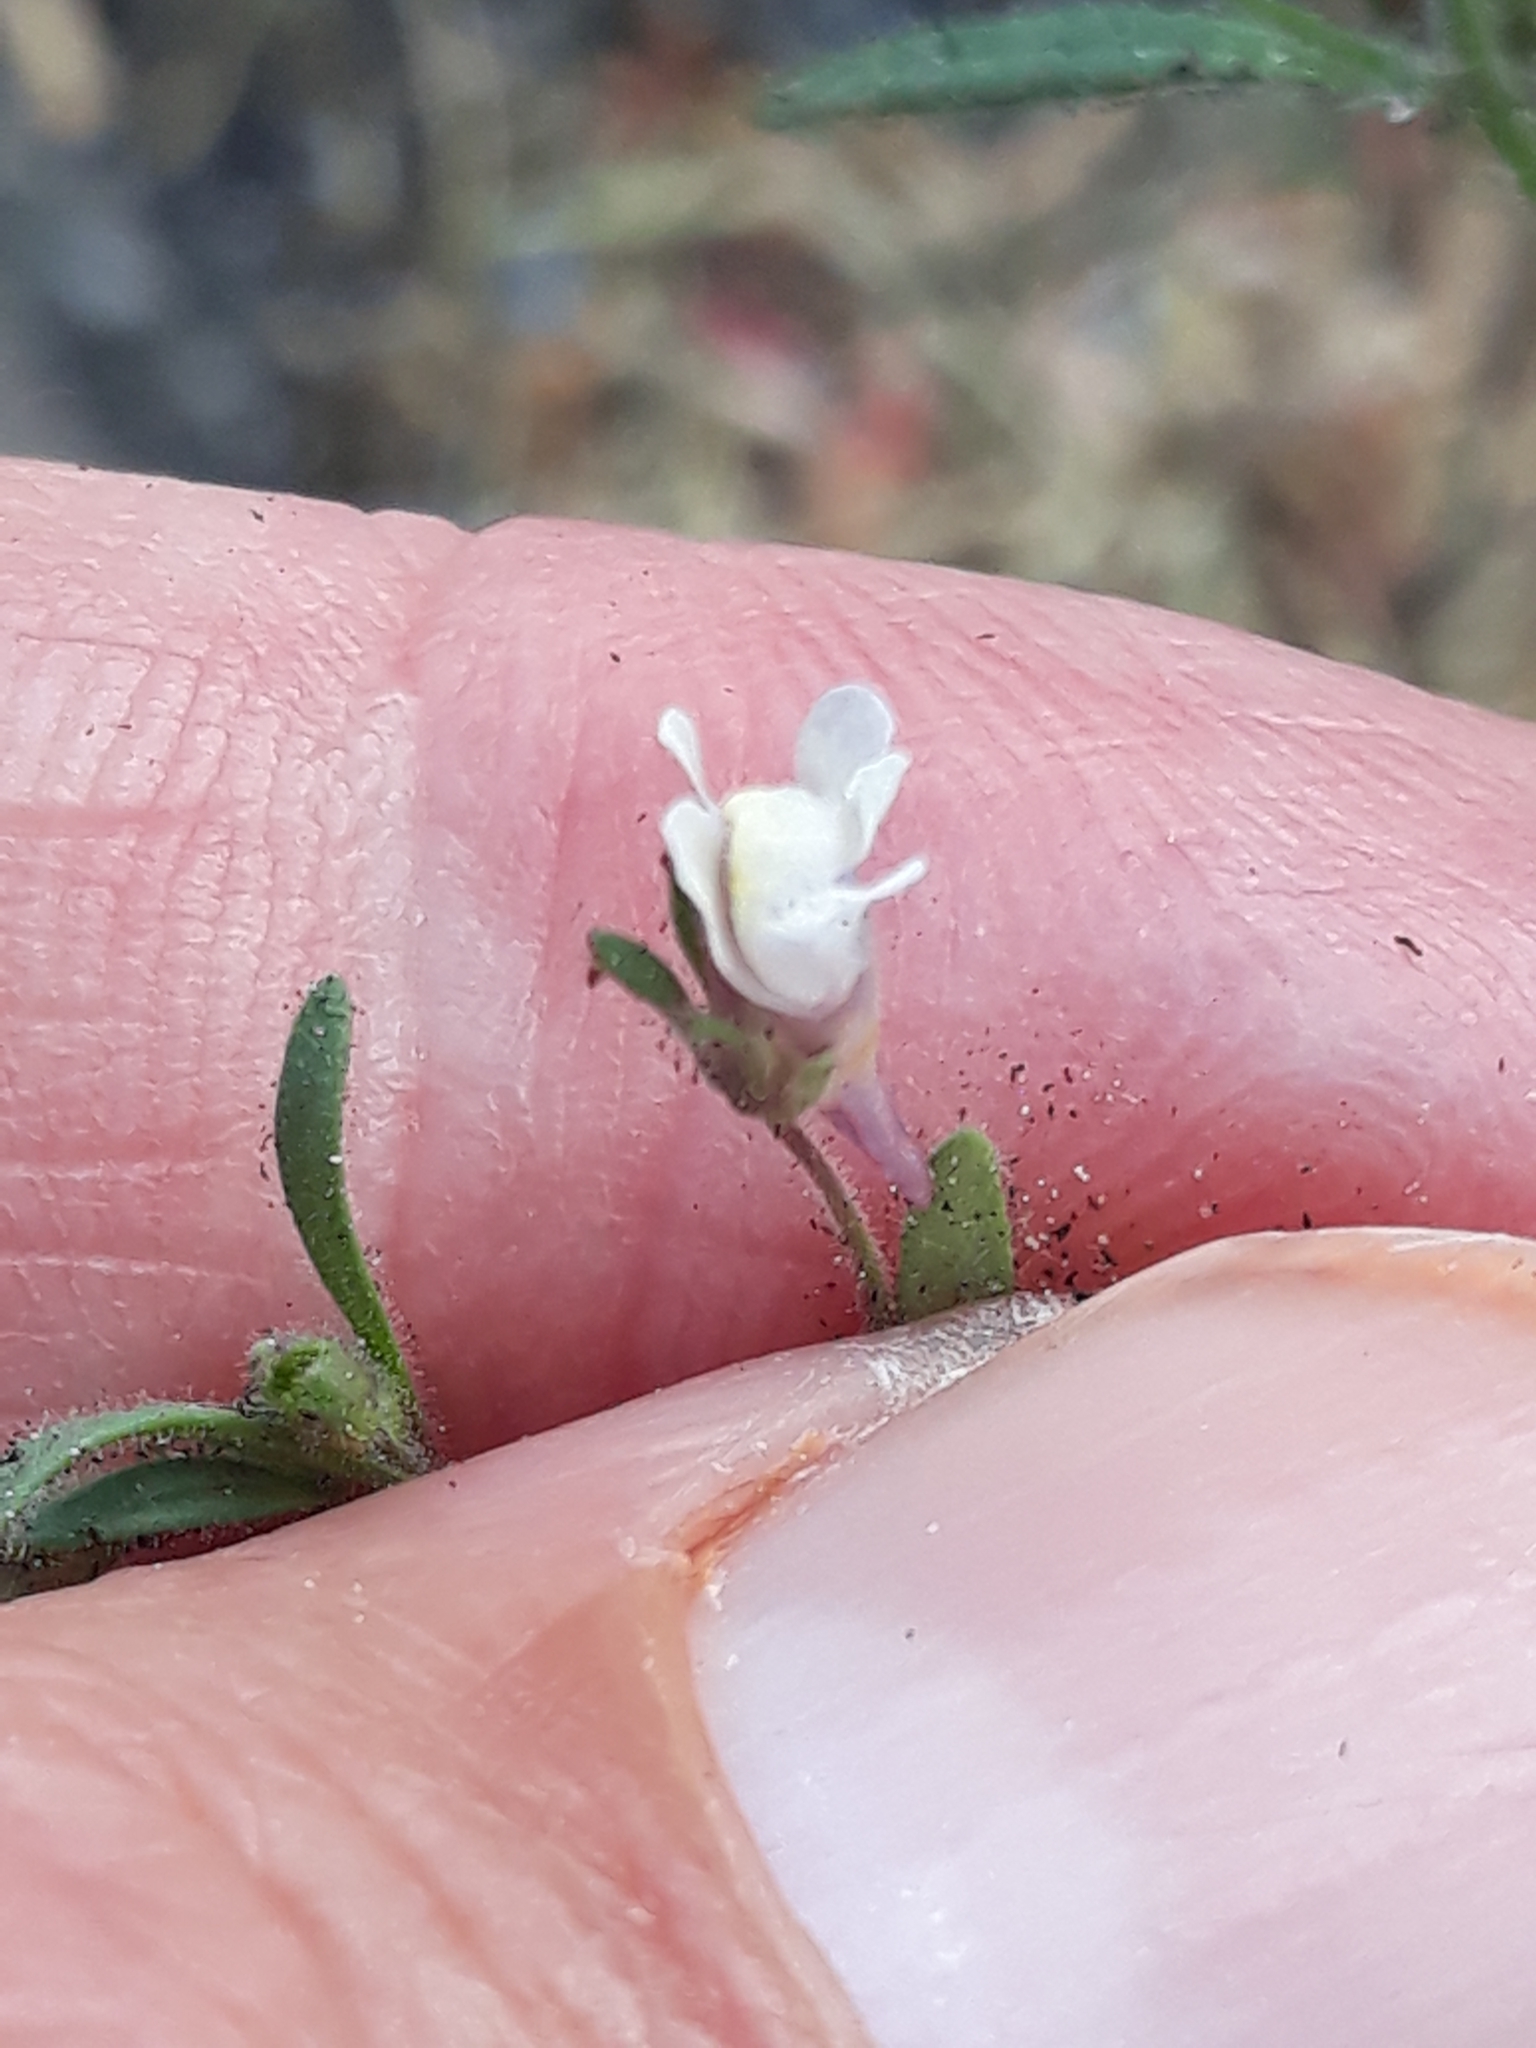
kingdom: Plantae
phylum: Tracheophyta
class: Magnoliopsida
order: Lamiales
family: Plantaginaceae
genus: Chaenorhinum
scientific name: Chaenorhinum minus
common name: Dwarf snapdragon
